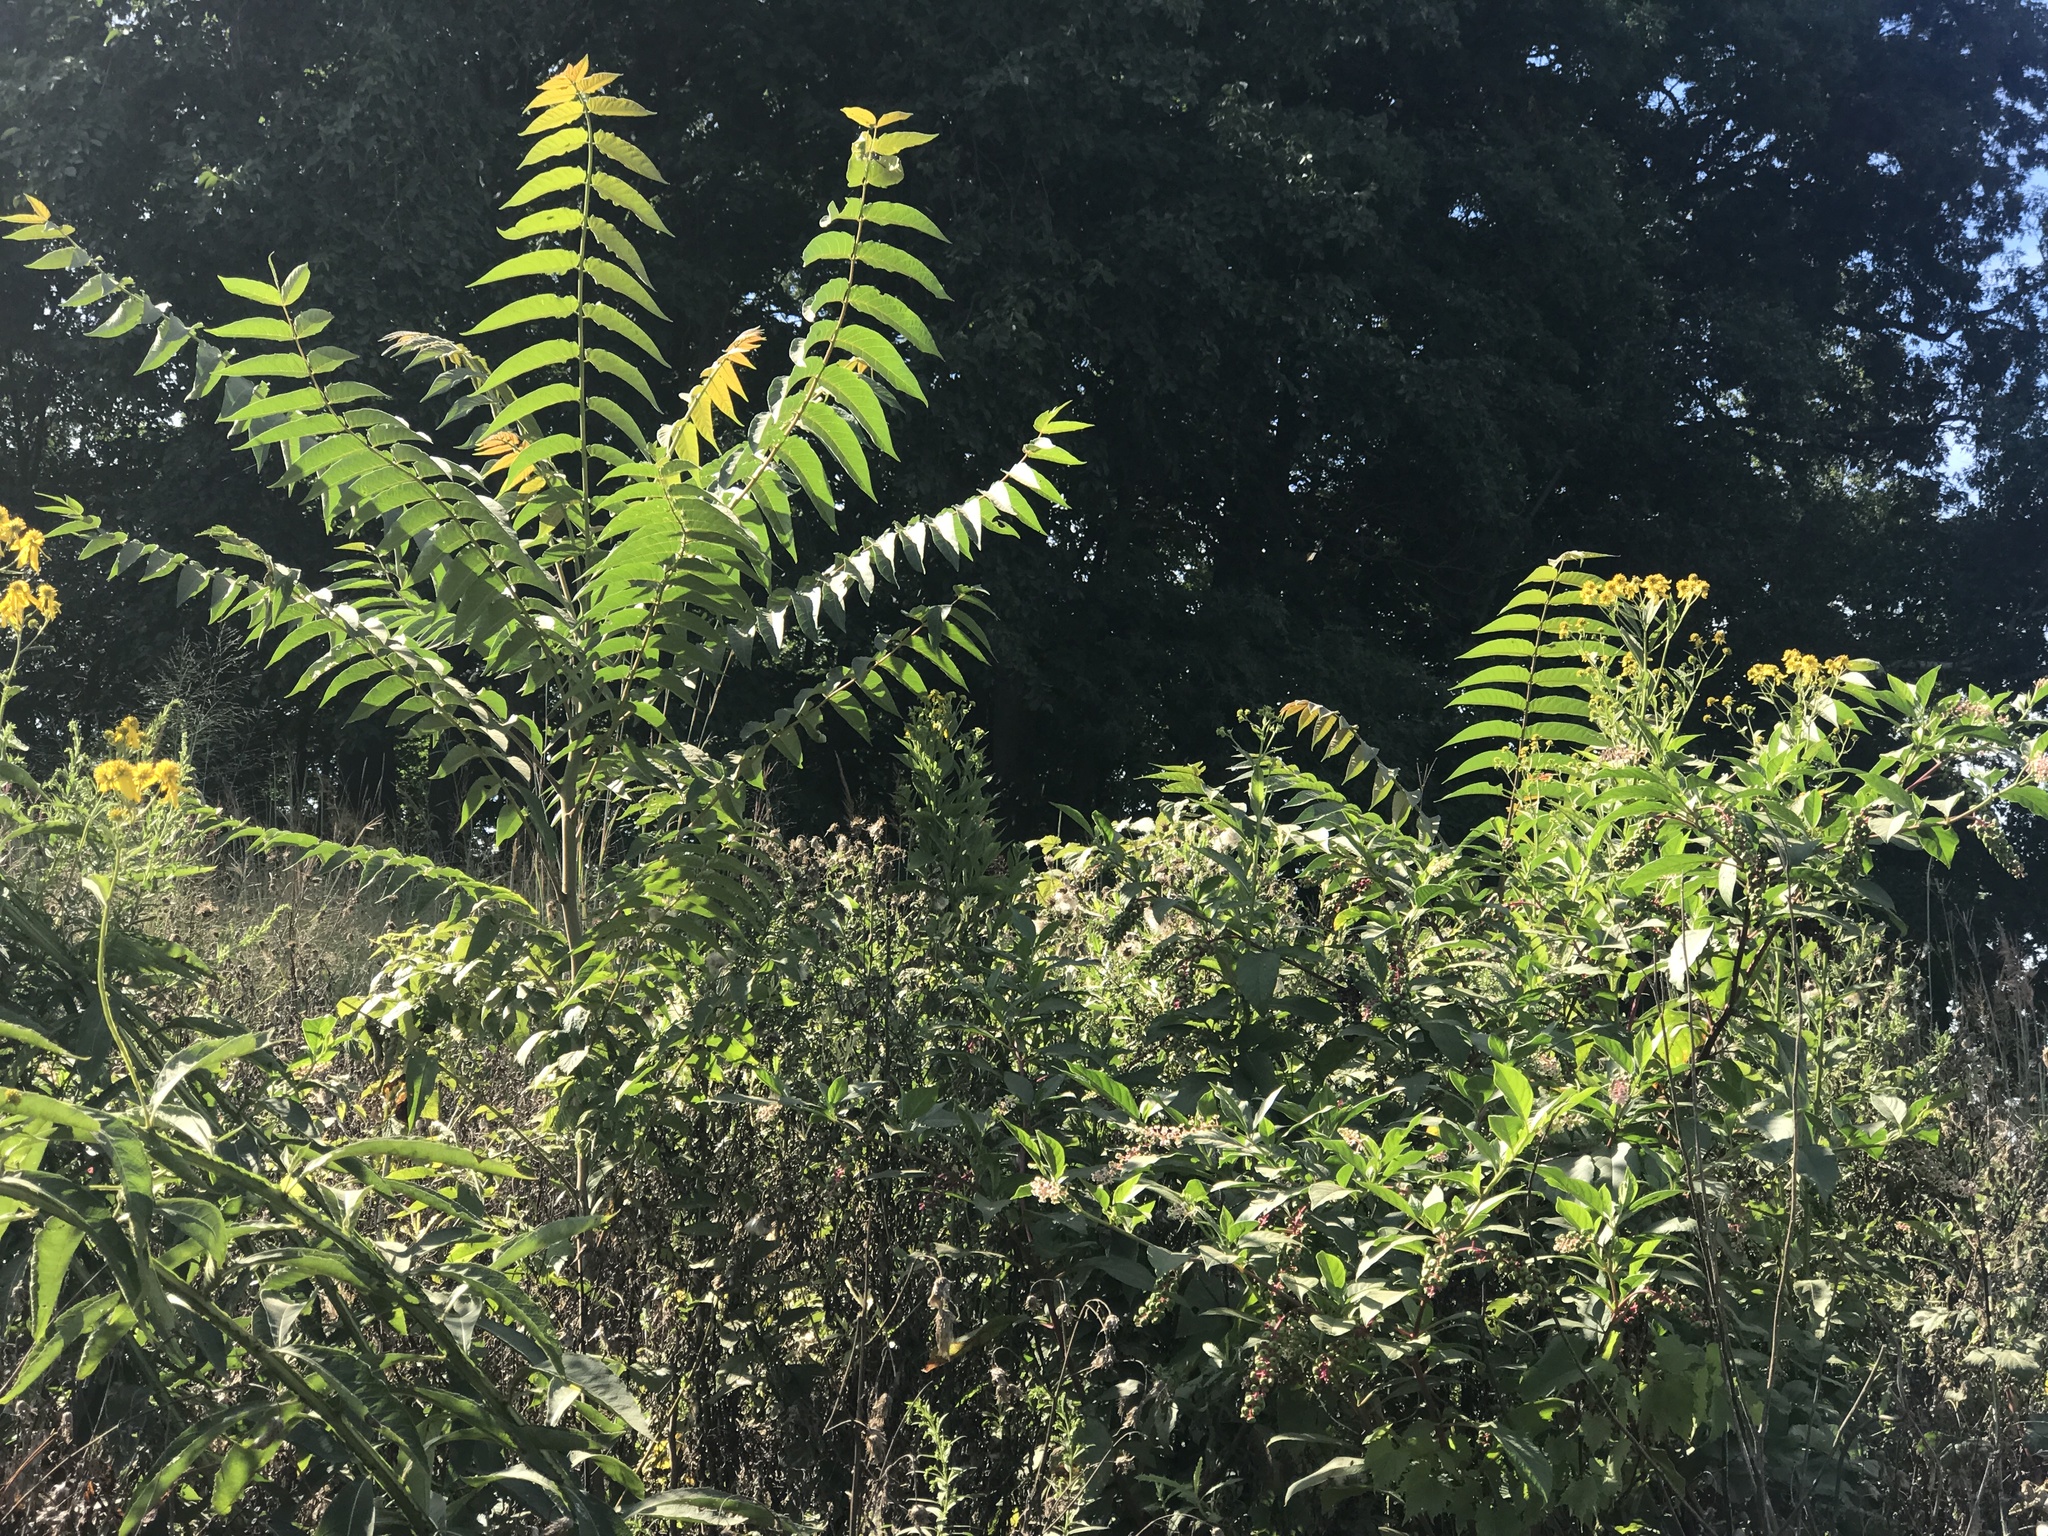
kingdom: Plantae
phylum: Tracheophyta
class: Magnoliopsida
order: Sapindales
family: Simaroubaceae
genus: Ailanthus
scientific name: Ailanthus altissima
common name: Tree-of-heaven
